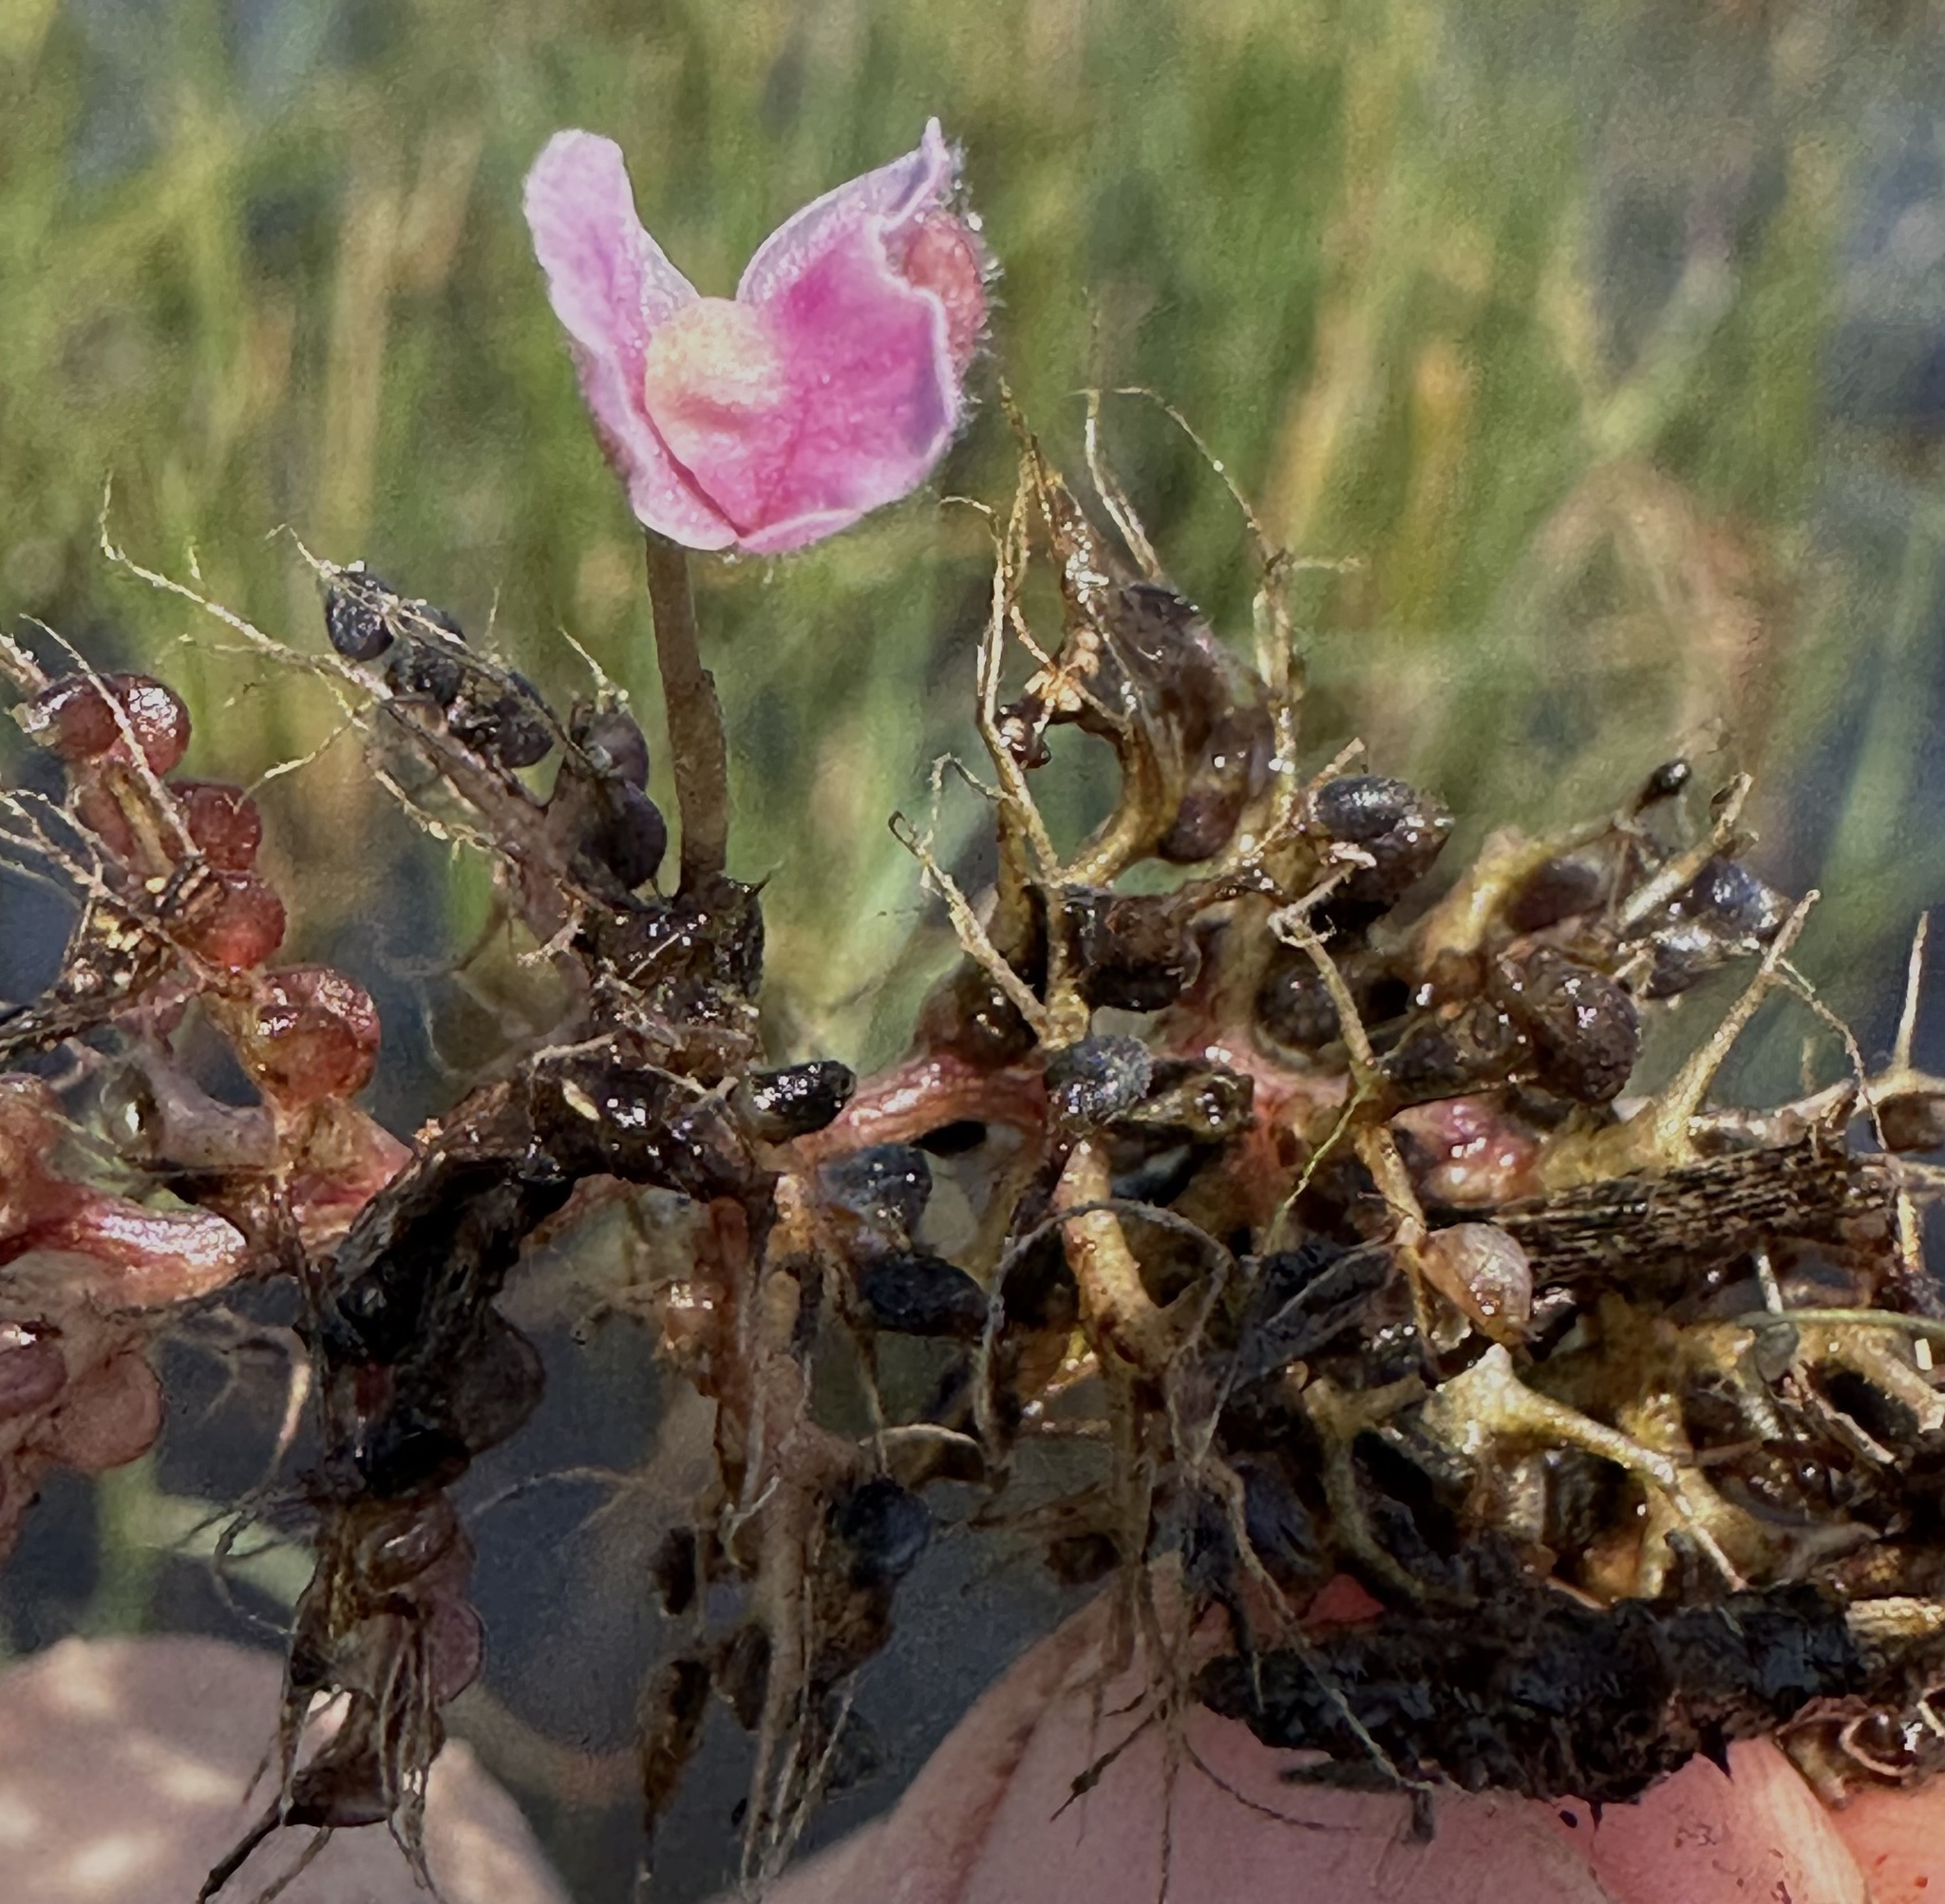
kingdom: Plantae
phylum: Tracheophyta
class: Magnoliopsida
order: Lamiales
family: Lentibulariaceae
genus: Utricularia
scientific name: Utricularia raynalii
